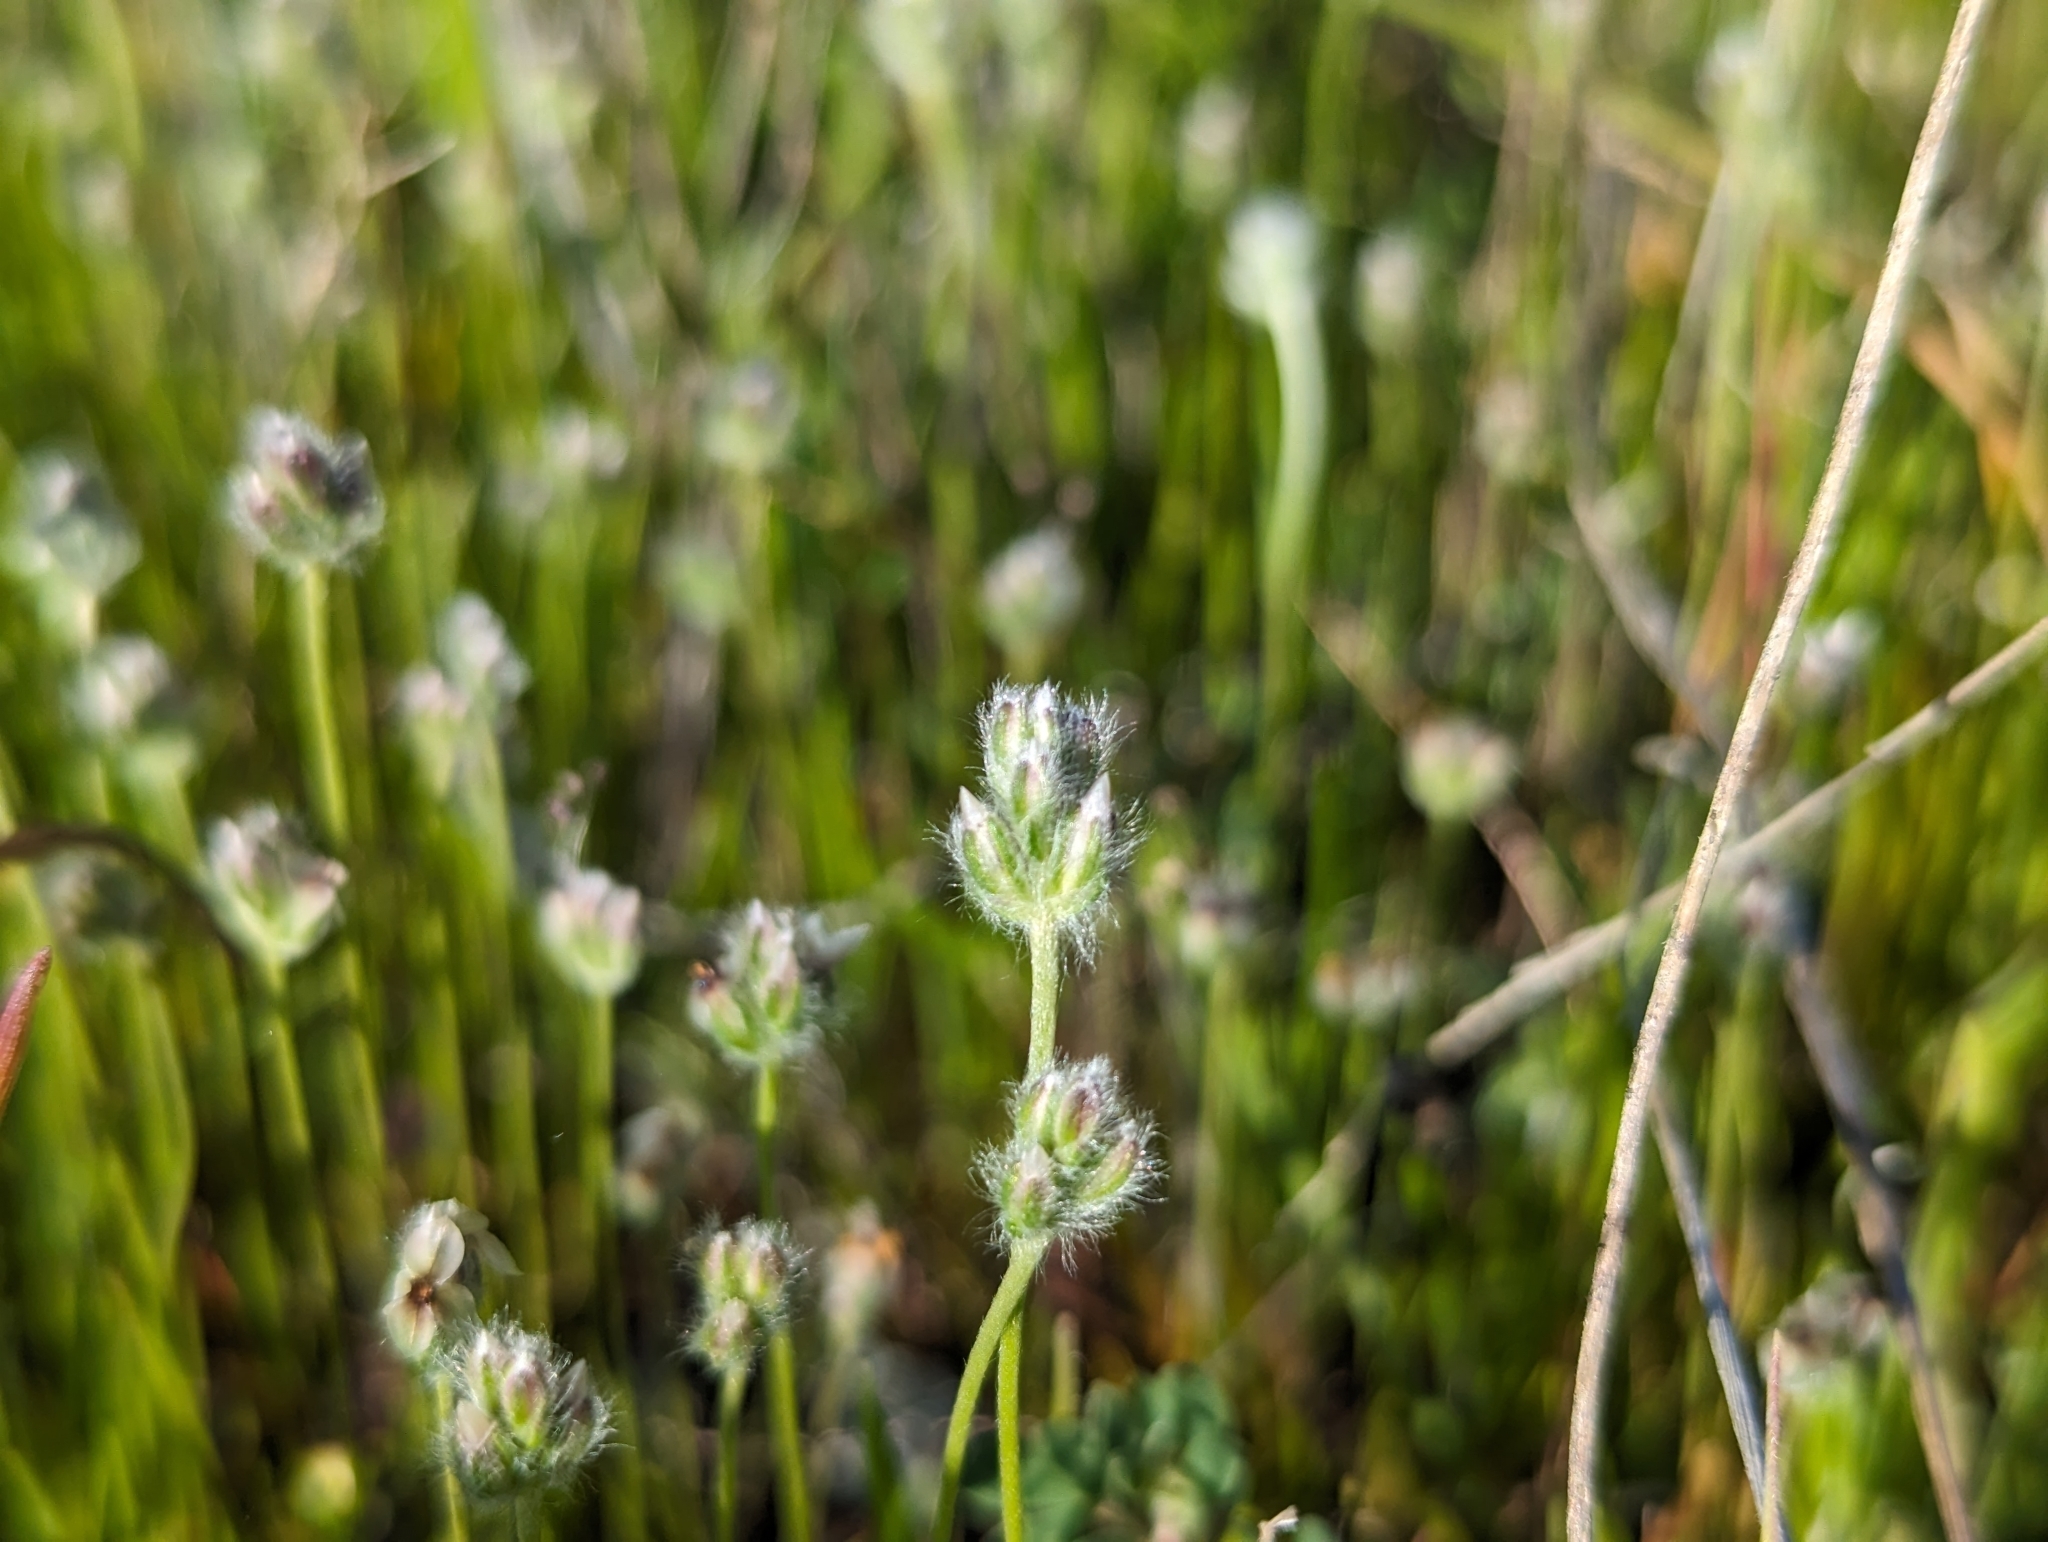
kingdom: Plantae
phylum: Tracheophyta
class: Magnoliopsida
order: Lamiales
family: Plantaginaceae
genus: Plantago
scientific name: Plantago erecta
